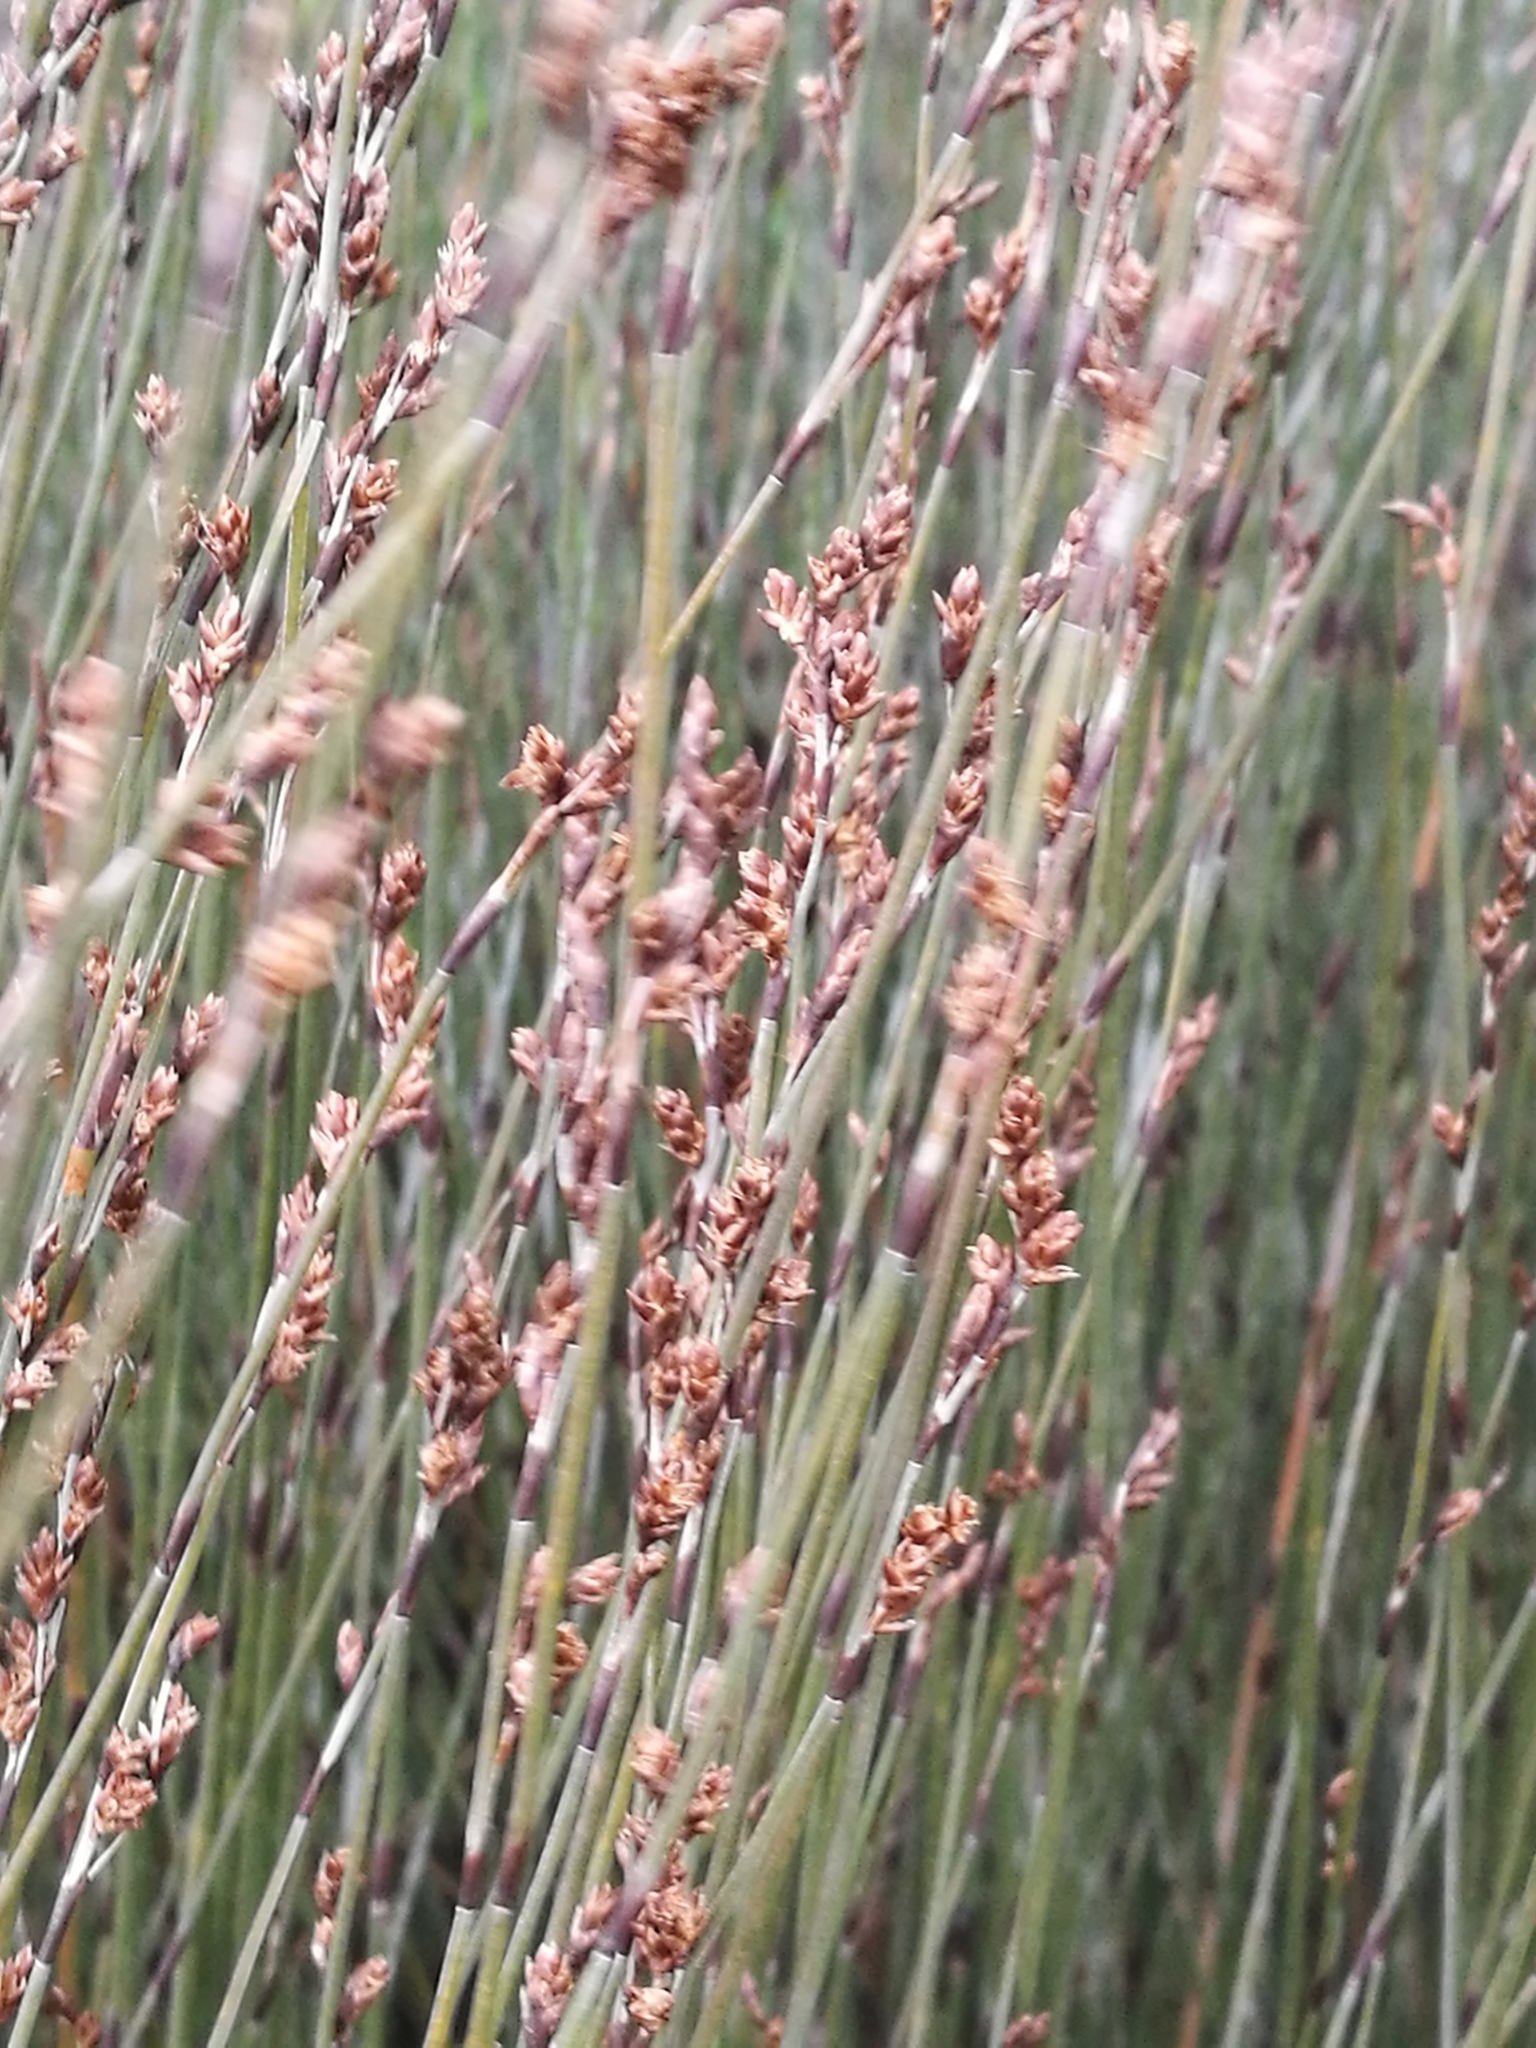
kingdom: Plantae
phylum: Tracheophyta
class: Liliopsida
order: Poales
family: Restionaceae
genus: Apodasmia
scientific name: Apodasmia similis
